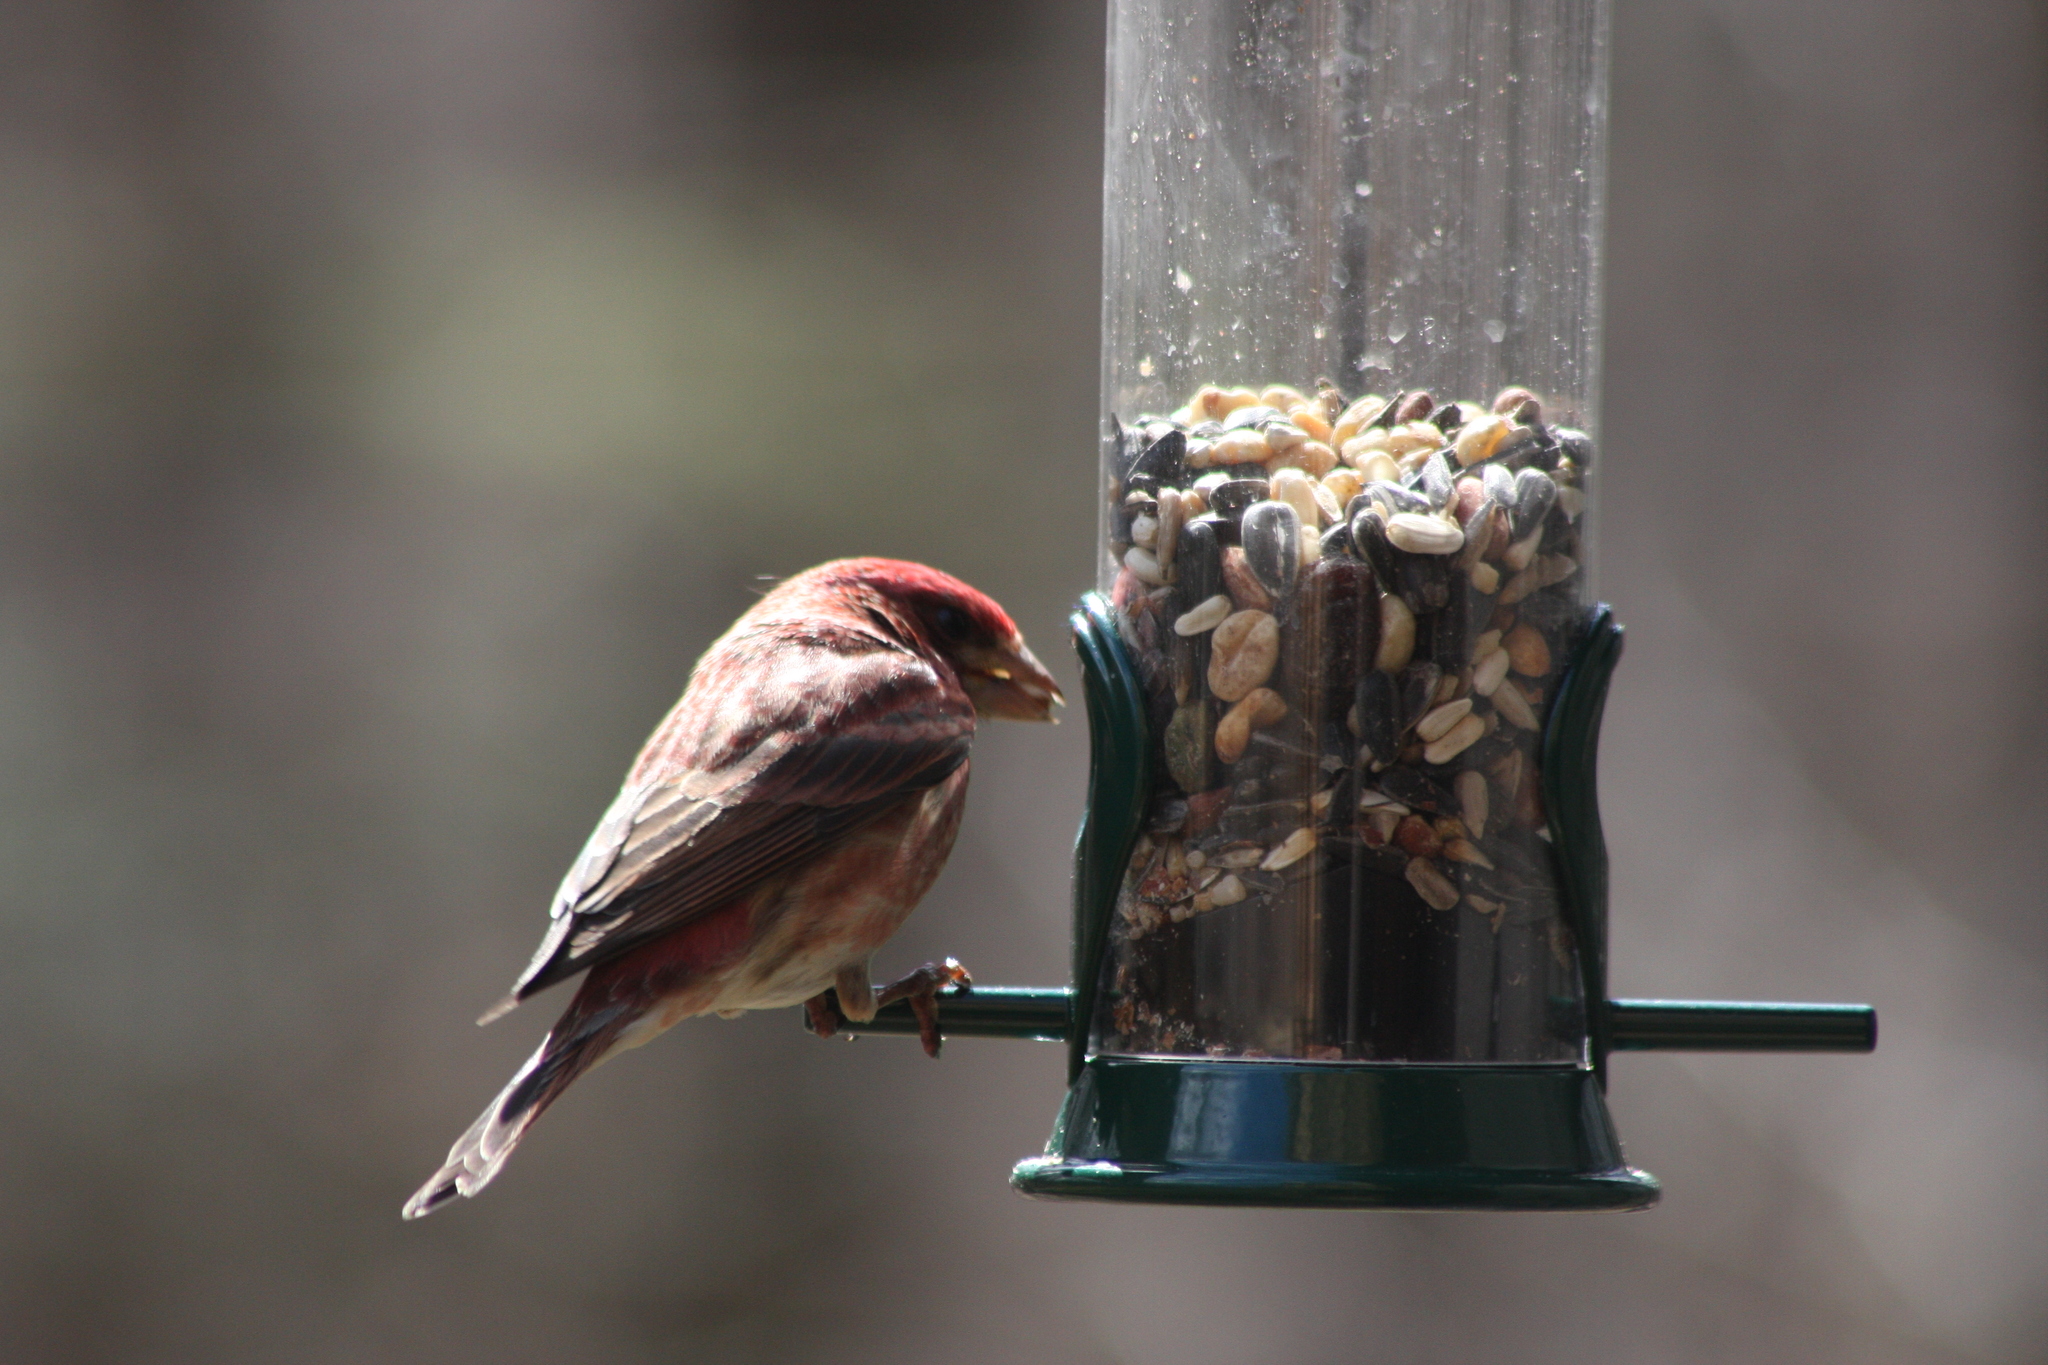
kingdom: Animalia
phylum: Chordata
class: Aves
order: Passeriformes
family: Fringillidae
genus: Haemorhous
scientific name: Haemorhous mexicanus
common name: House finch
